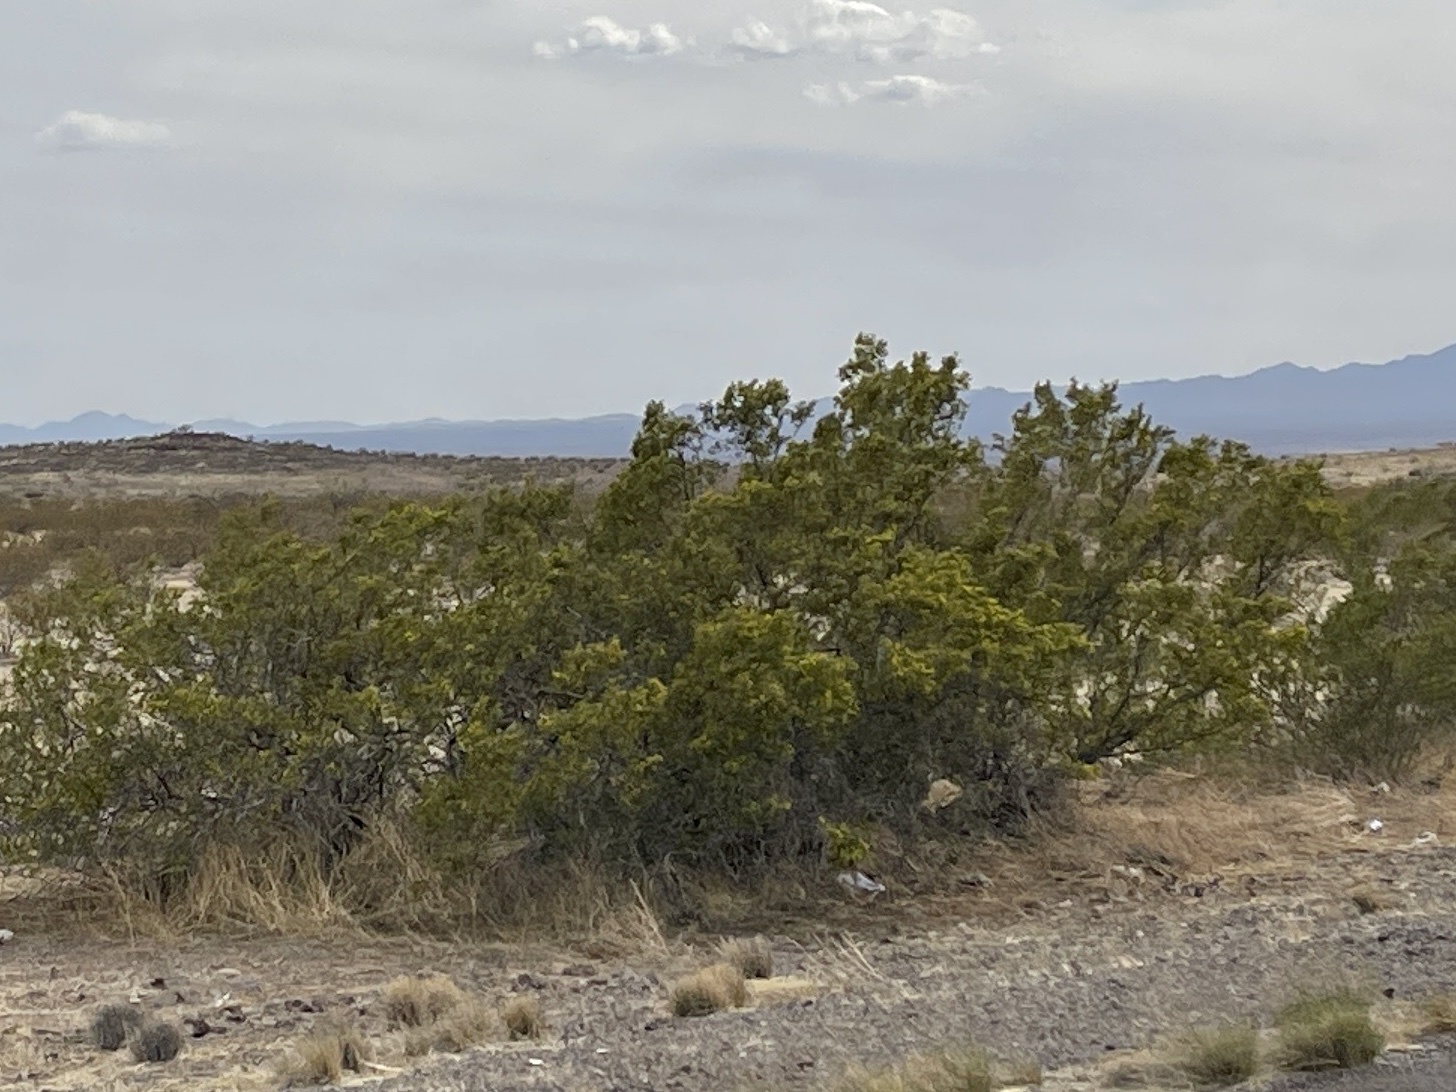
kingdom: Plantae
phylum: Tracheophyta
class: Magnoliopsida
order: Zygophyllales
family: Zygophyllaceae
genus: Larrea
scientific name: Larrea tridentata
